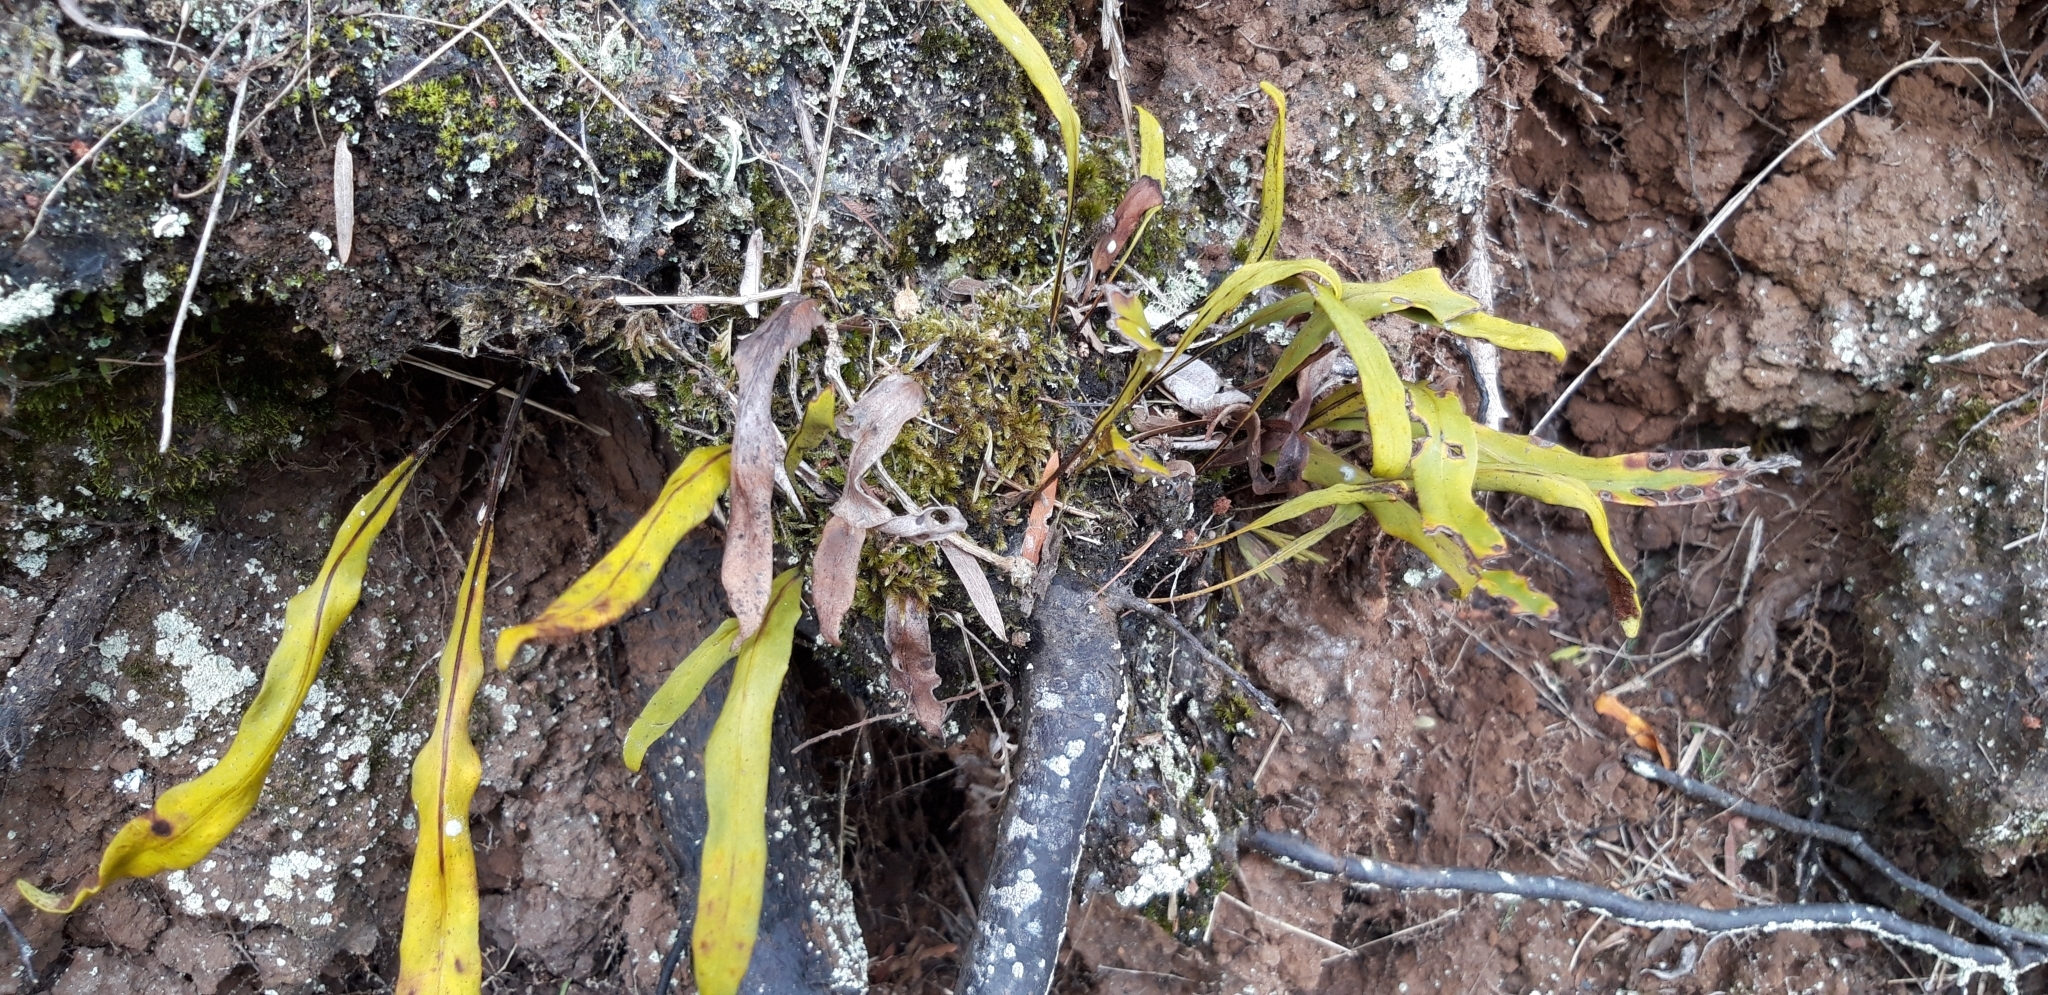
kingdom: Plantae
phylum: Tracheophyta
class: Polypodiopsida
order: Polypodiales
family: Polypodiaceae
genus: Pleopeltis
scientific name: Pleopeltis macrocarpa
